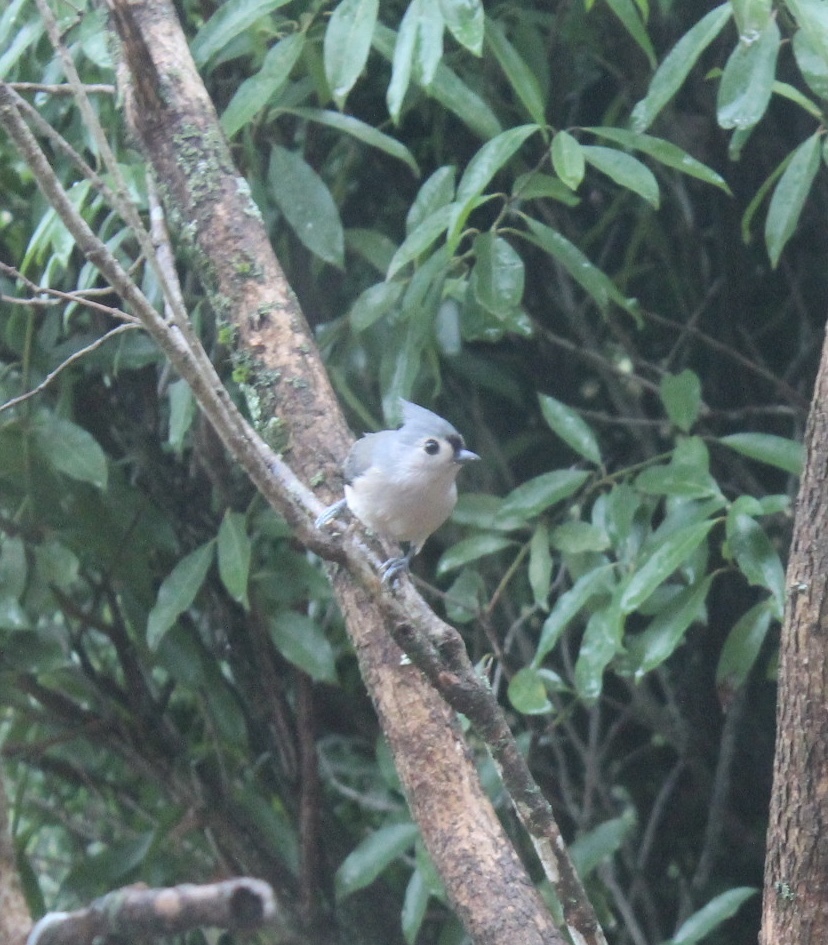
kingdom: Animalia
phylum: Chordata
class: Aves
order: Passeriformes
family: Paridae
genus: Baeolophus
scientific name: Baeolophus bicolor
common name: Tufted titmouse
